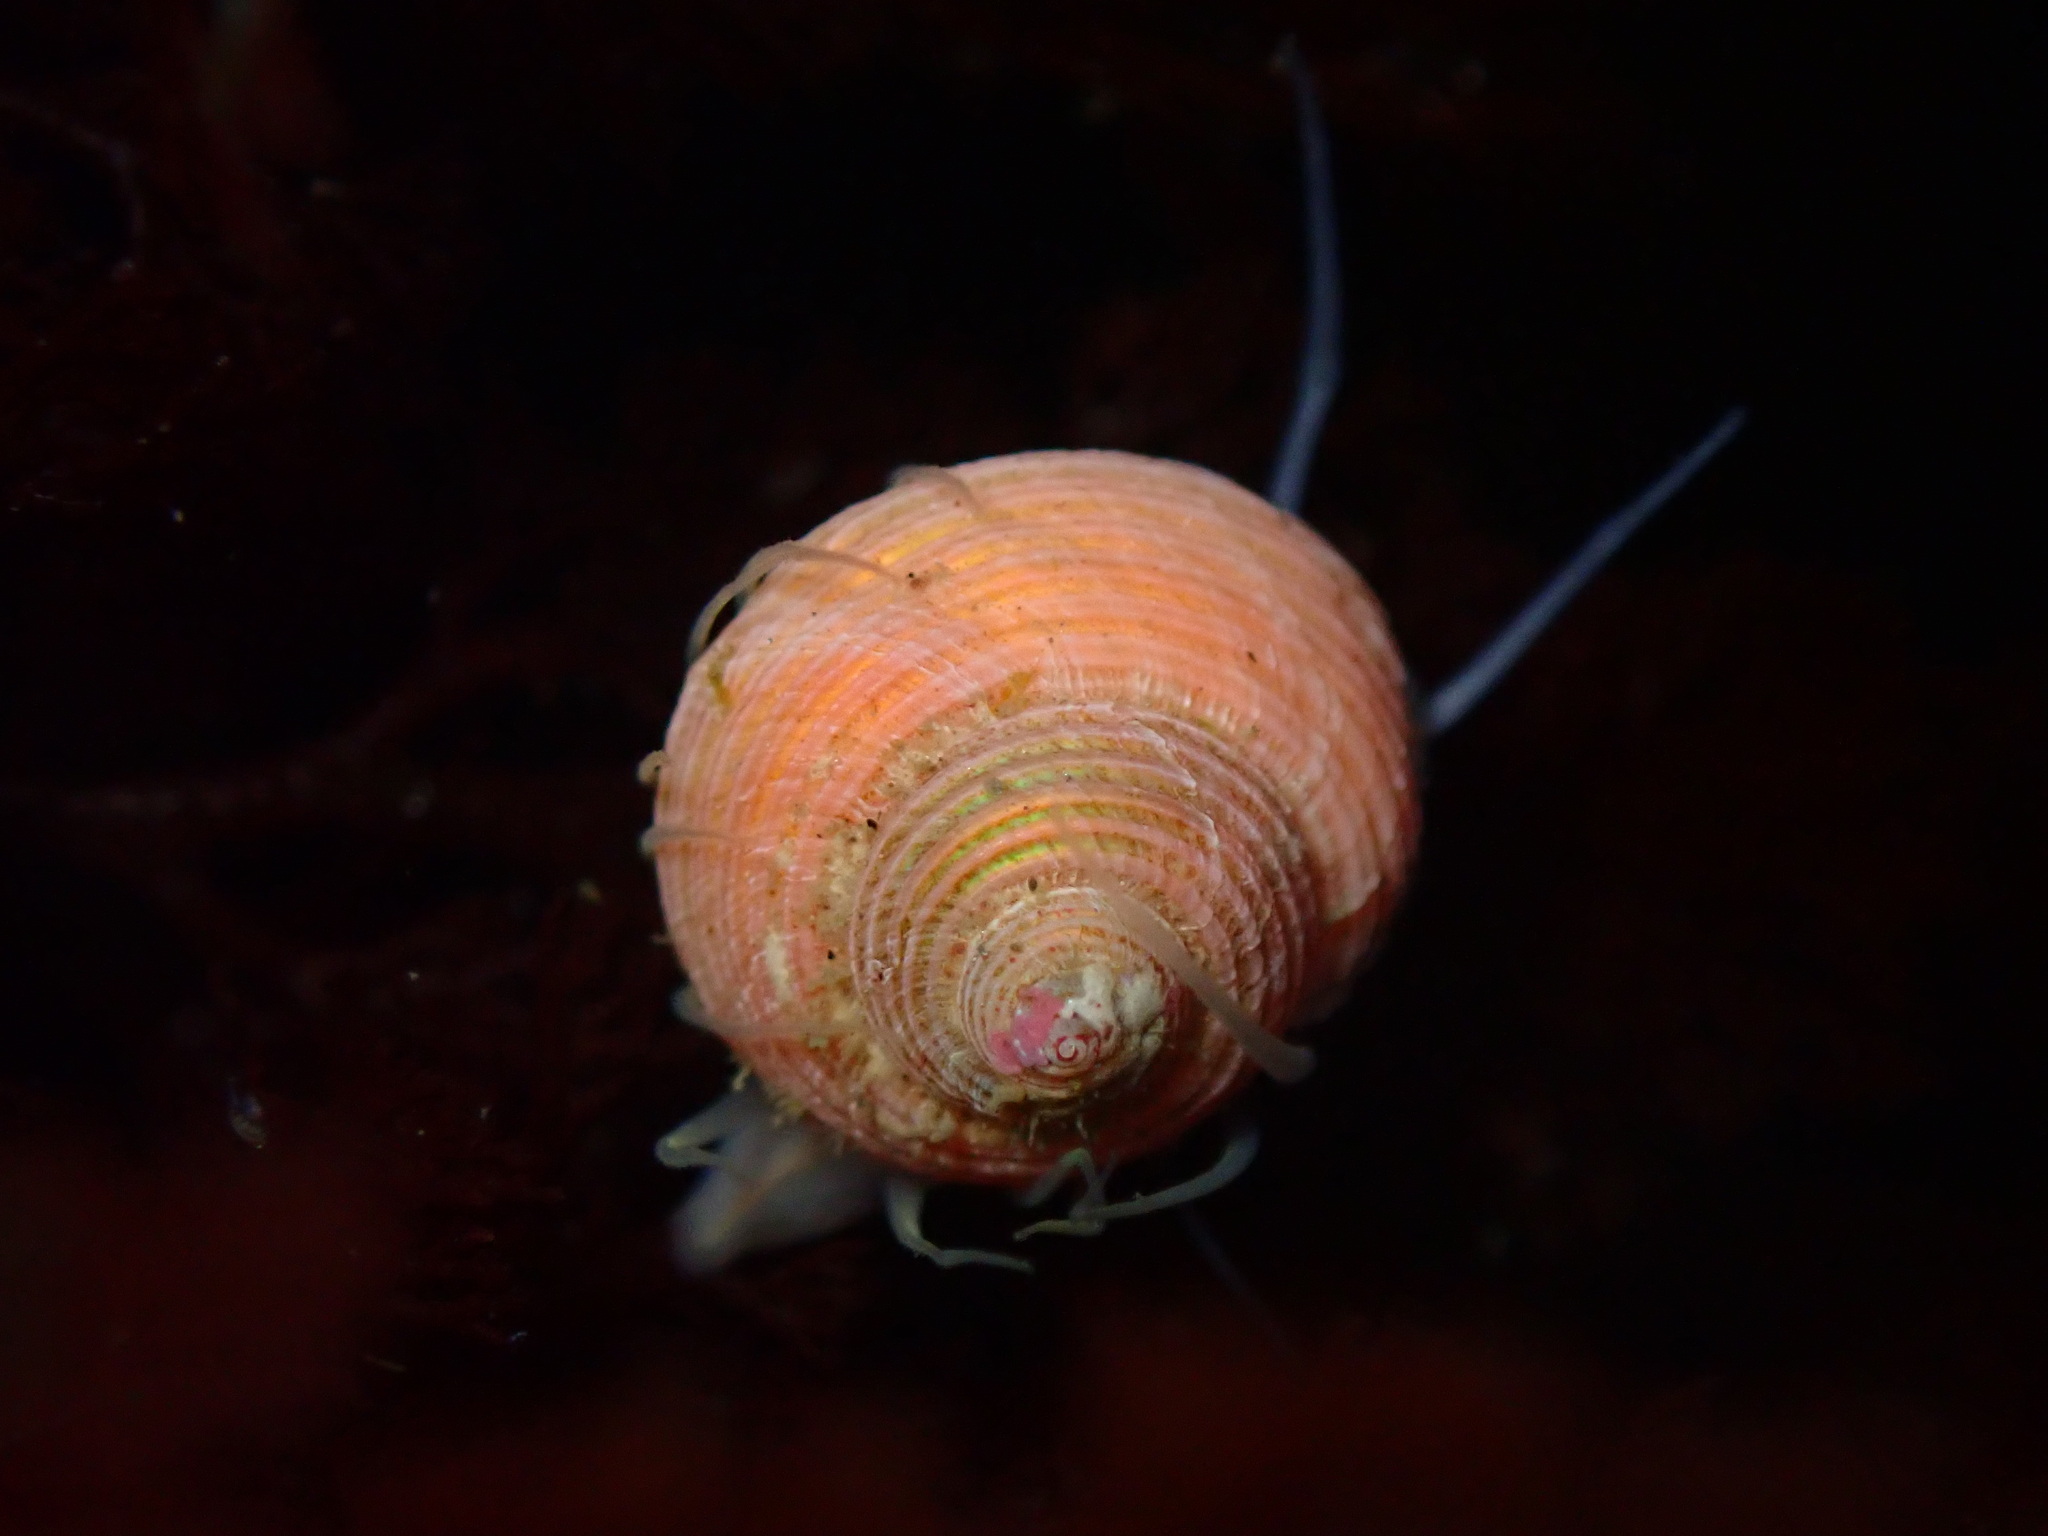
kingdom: Animalia
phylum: Mollusca
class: Gastropoda
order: Trochida
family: Margaritidae
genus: Margarites
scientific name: Margarites pupillus
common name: Puppet margarite
